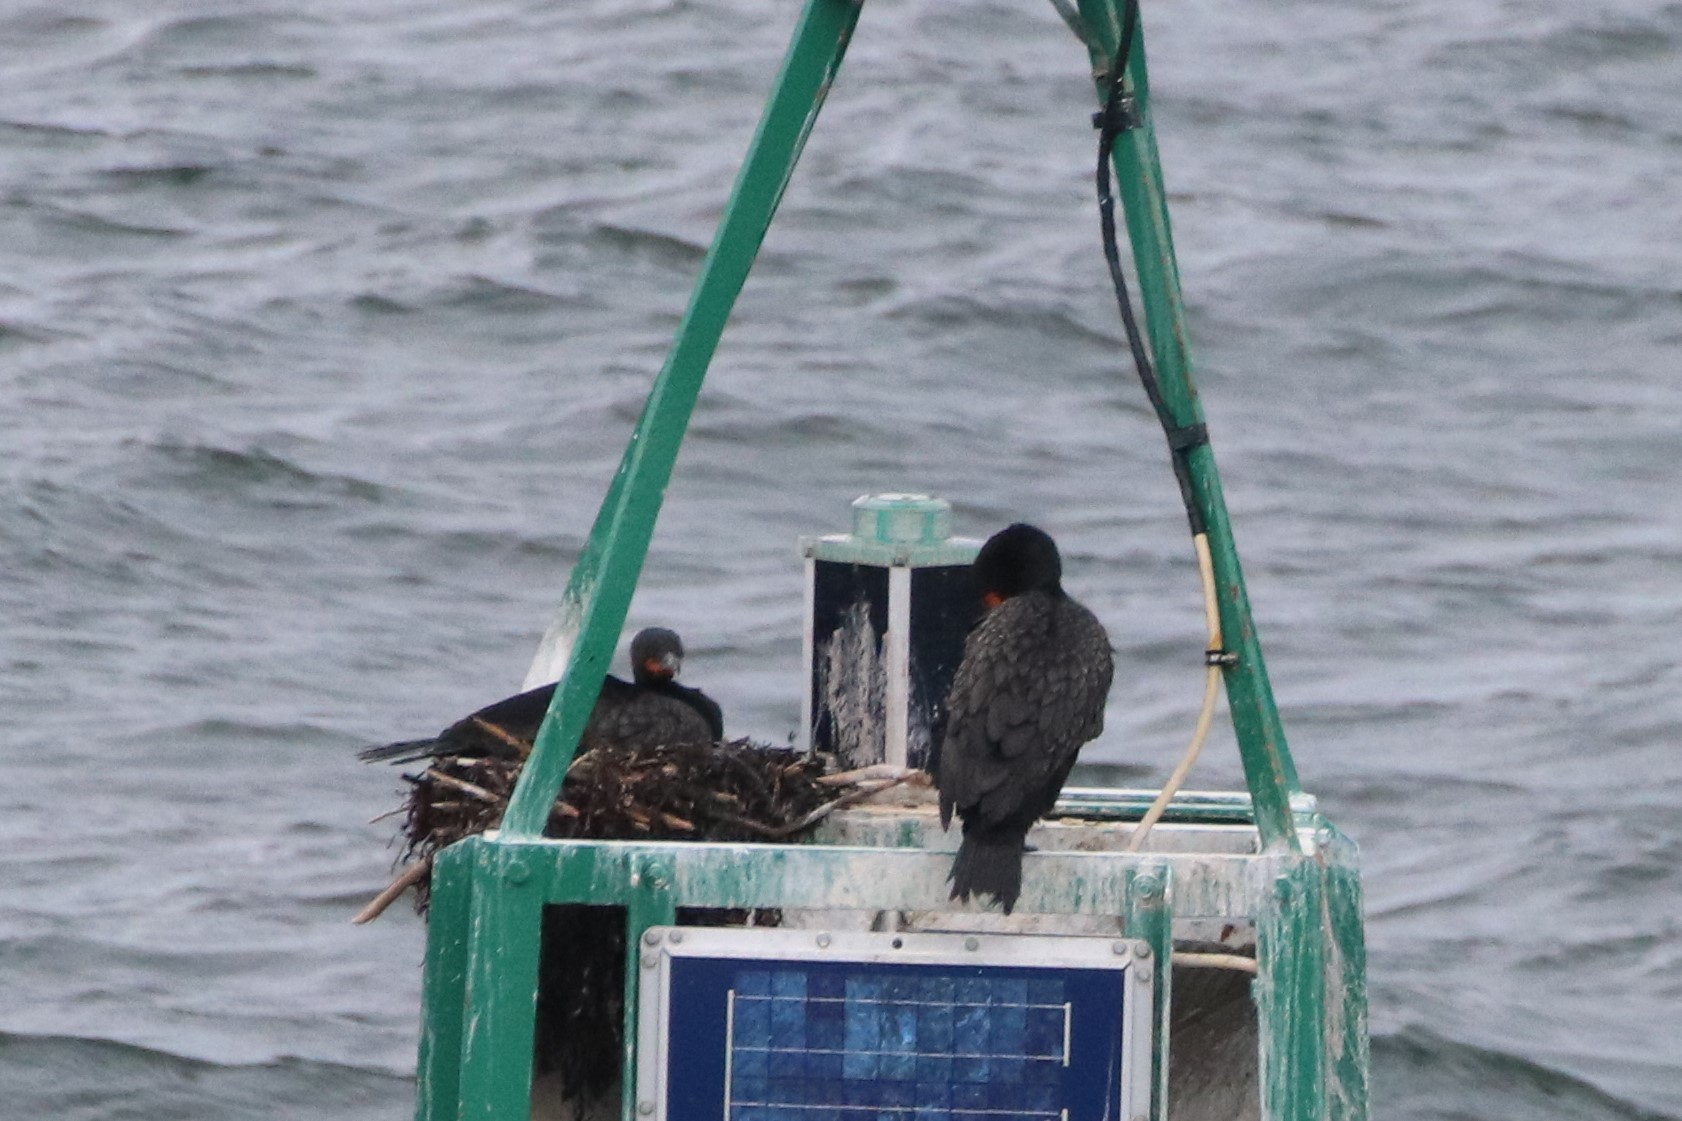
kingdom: Animalia
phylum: Chordata
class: Aves
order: Suliformes
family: Phalacrocoracidae
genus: Phalacrocorax
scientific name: Phalacrocorax auritus
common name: Double-crested cormorant
